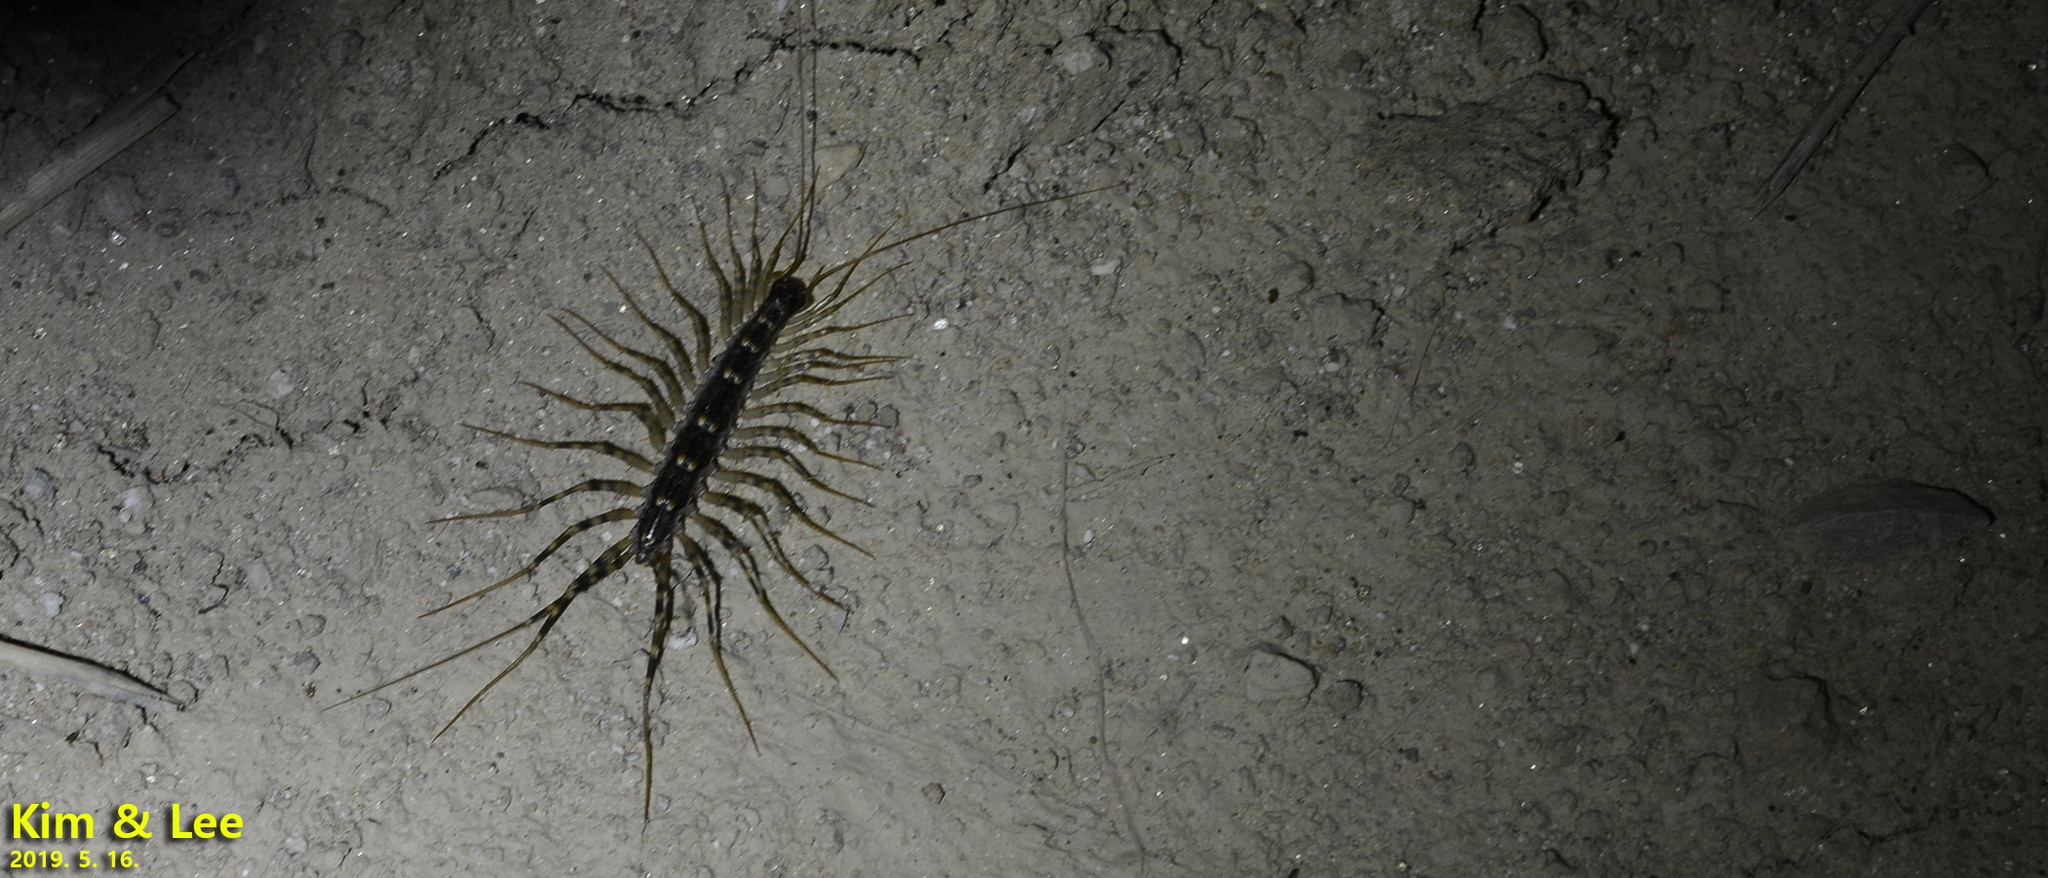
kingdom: Animalia
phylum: Arthropoda
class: Chilopoda
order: Scutigeromorpha
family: Scutigeridae
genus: Thereuonema
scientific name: Thereuonema tuberculata
